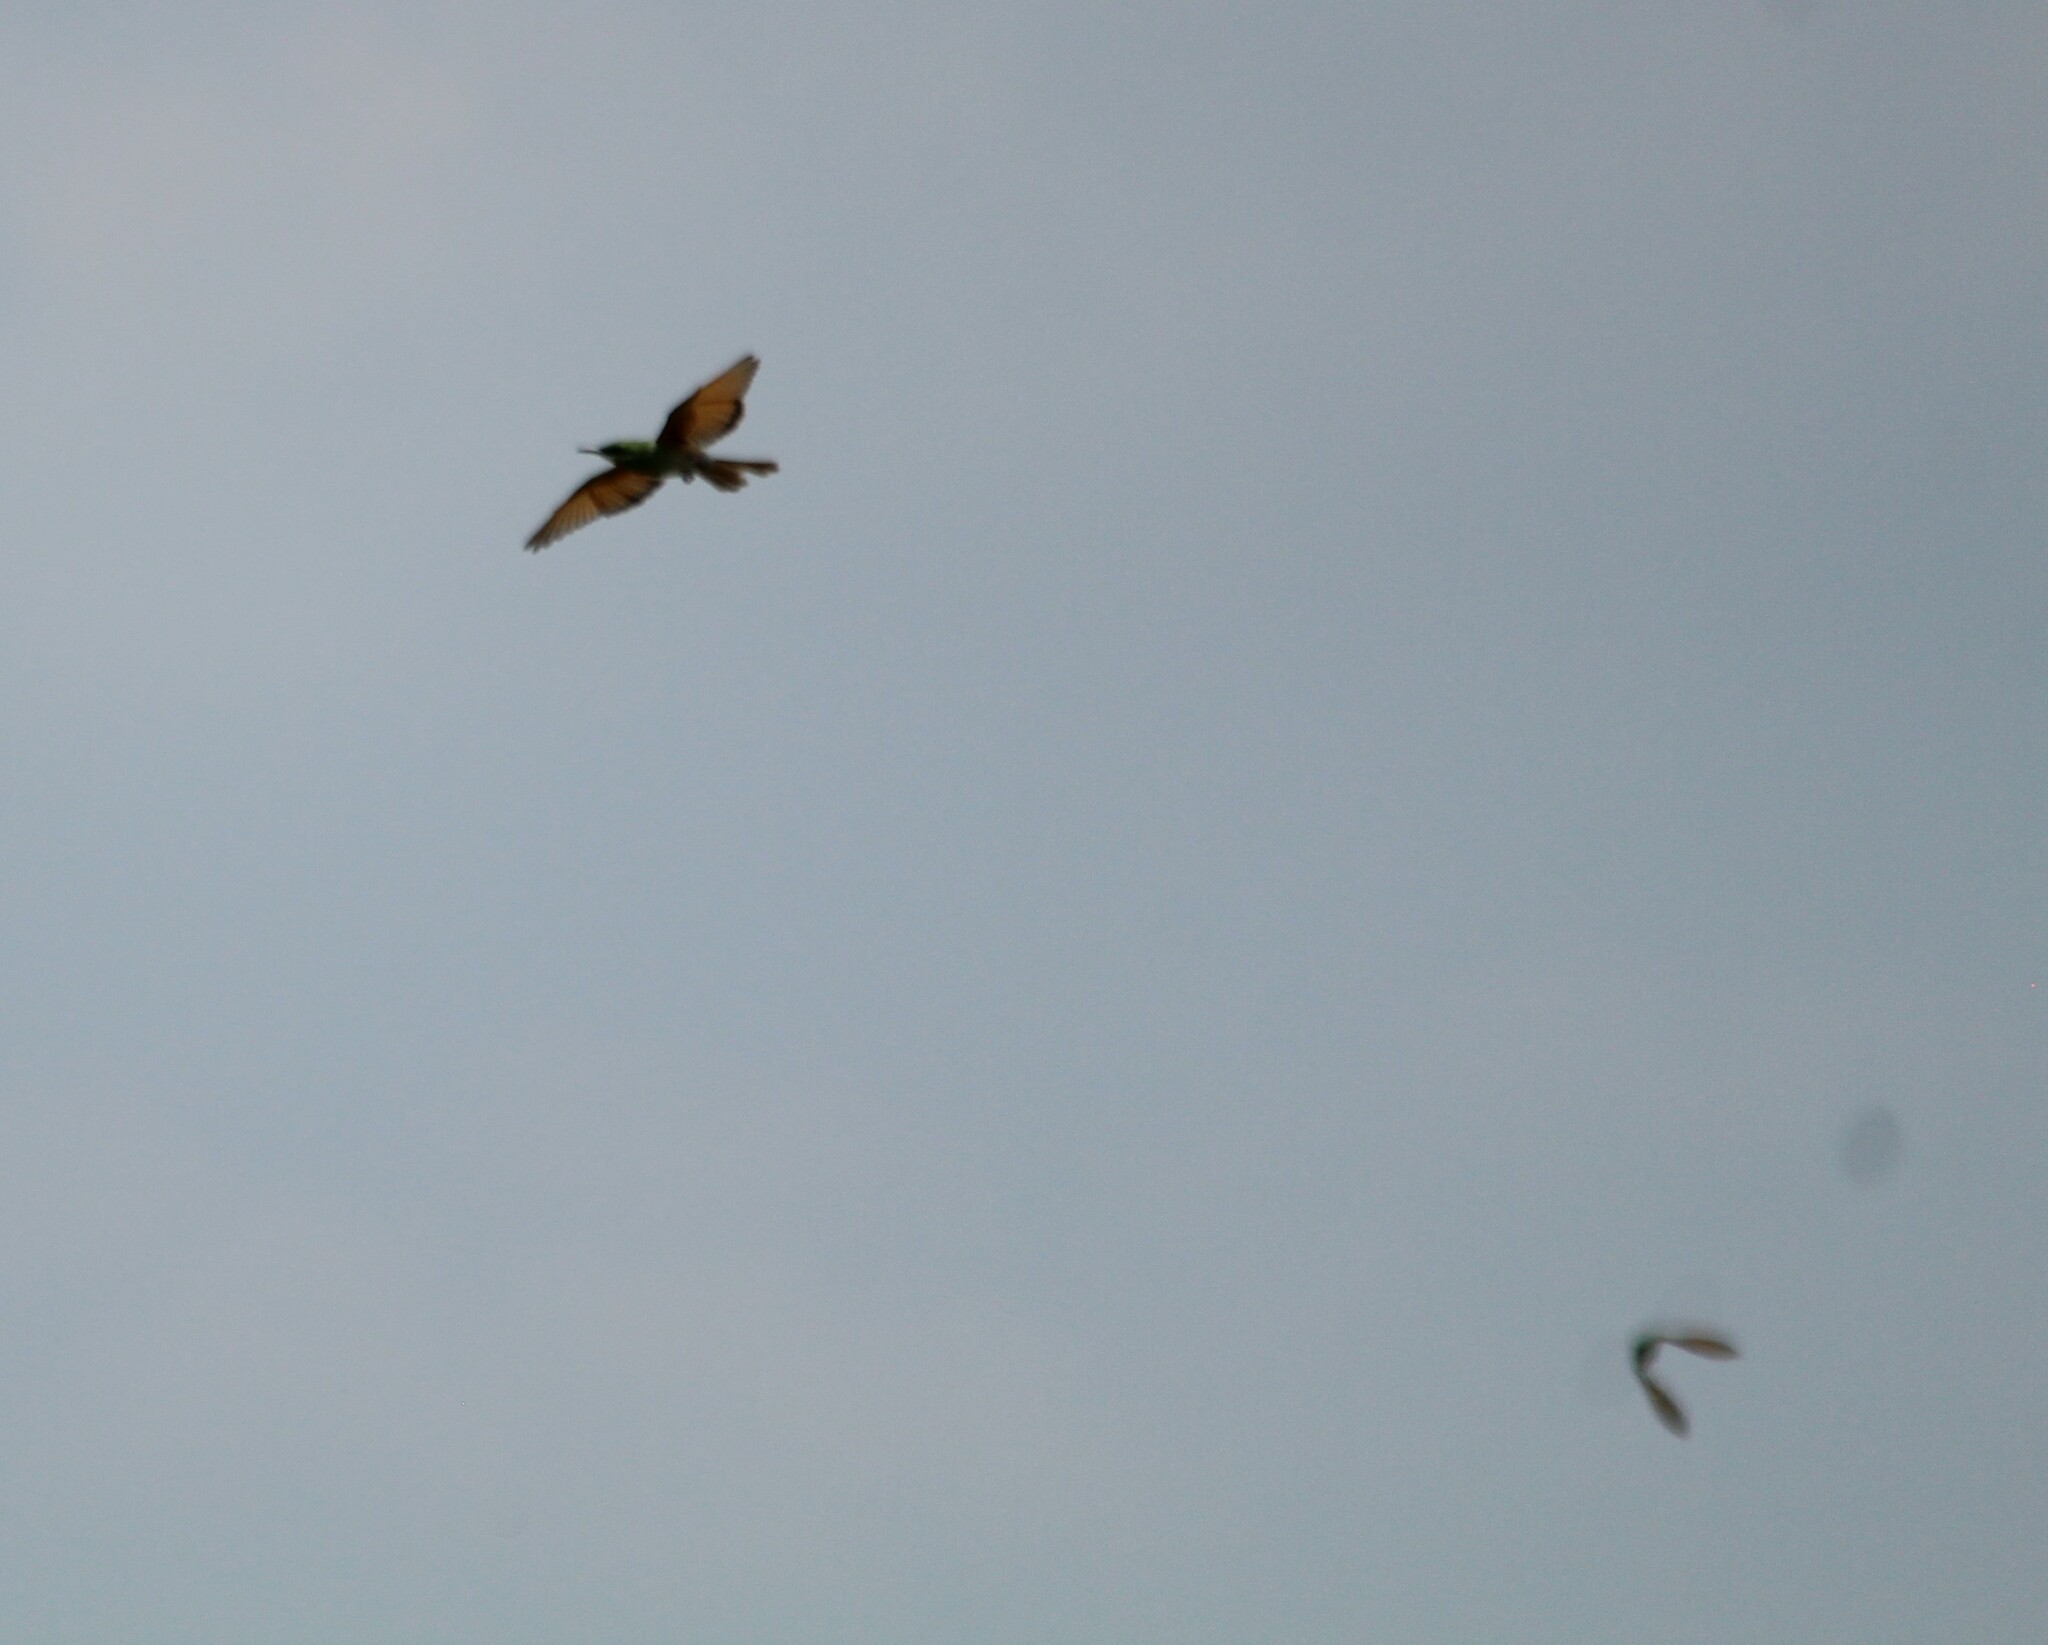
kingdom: Animalia
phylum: Chordata
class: Aves
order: Coraciiformes
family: Meropidae
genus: Merops
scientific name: Merops orientalis
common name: Green bee-eater
